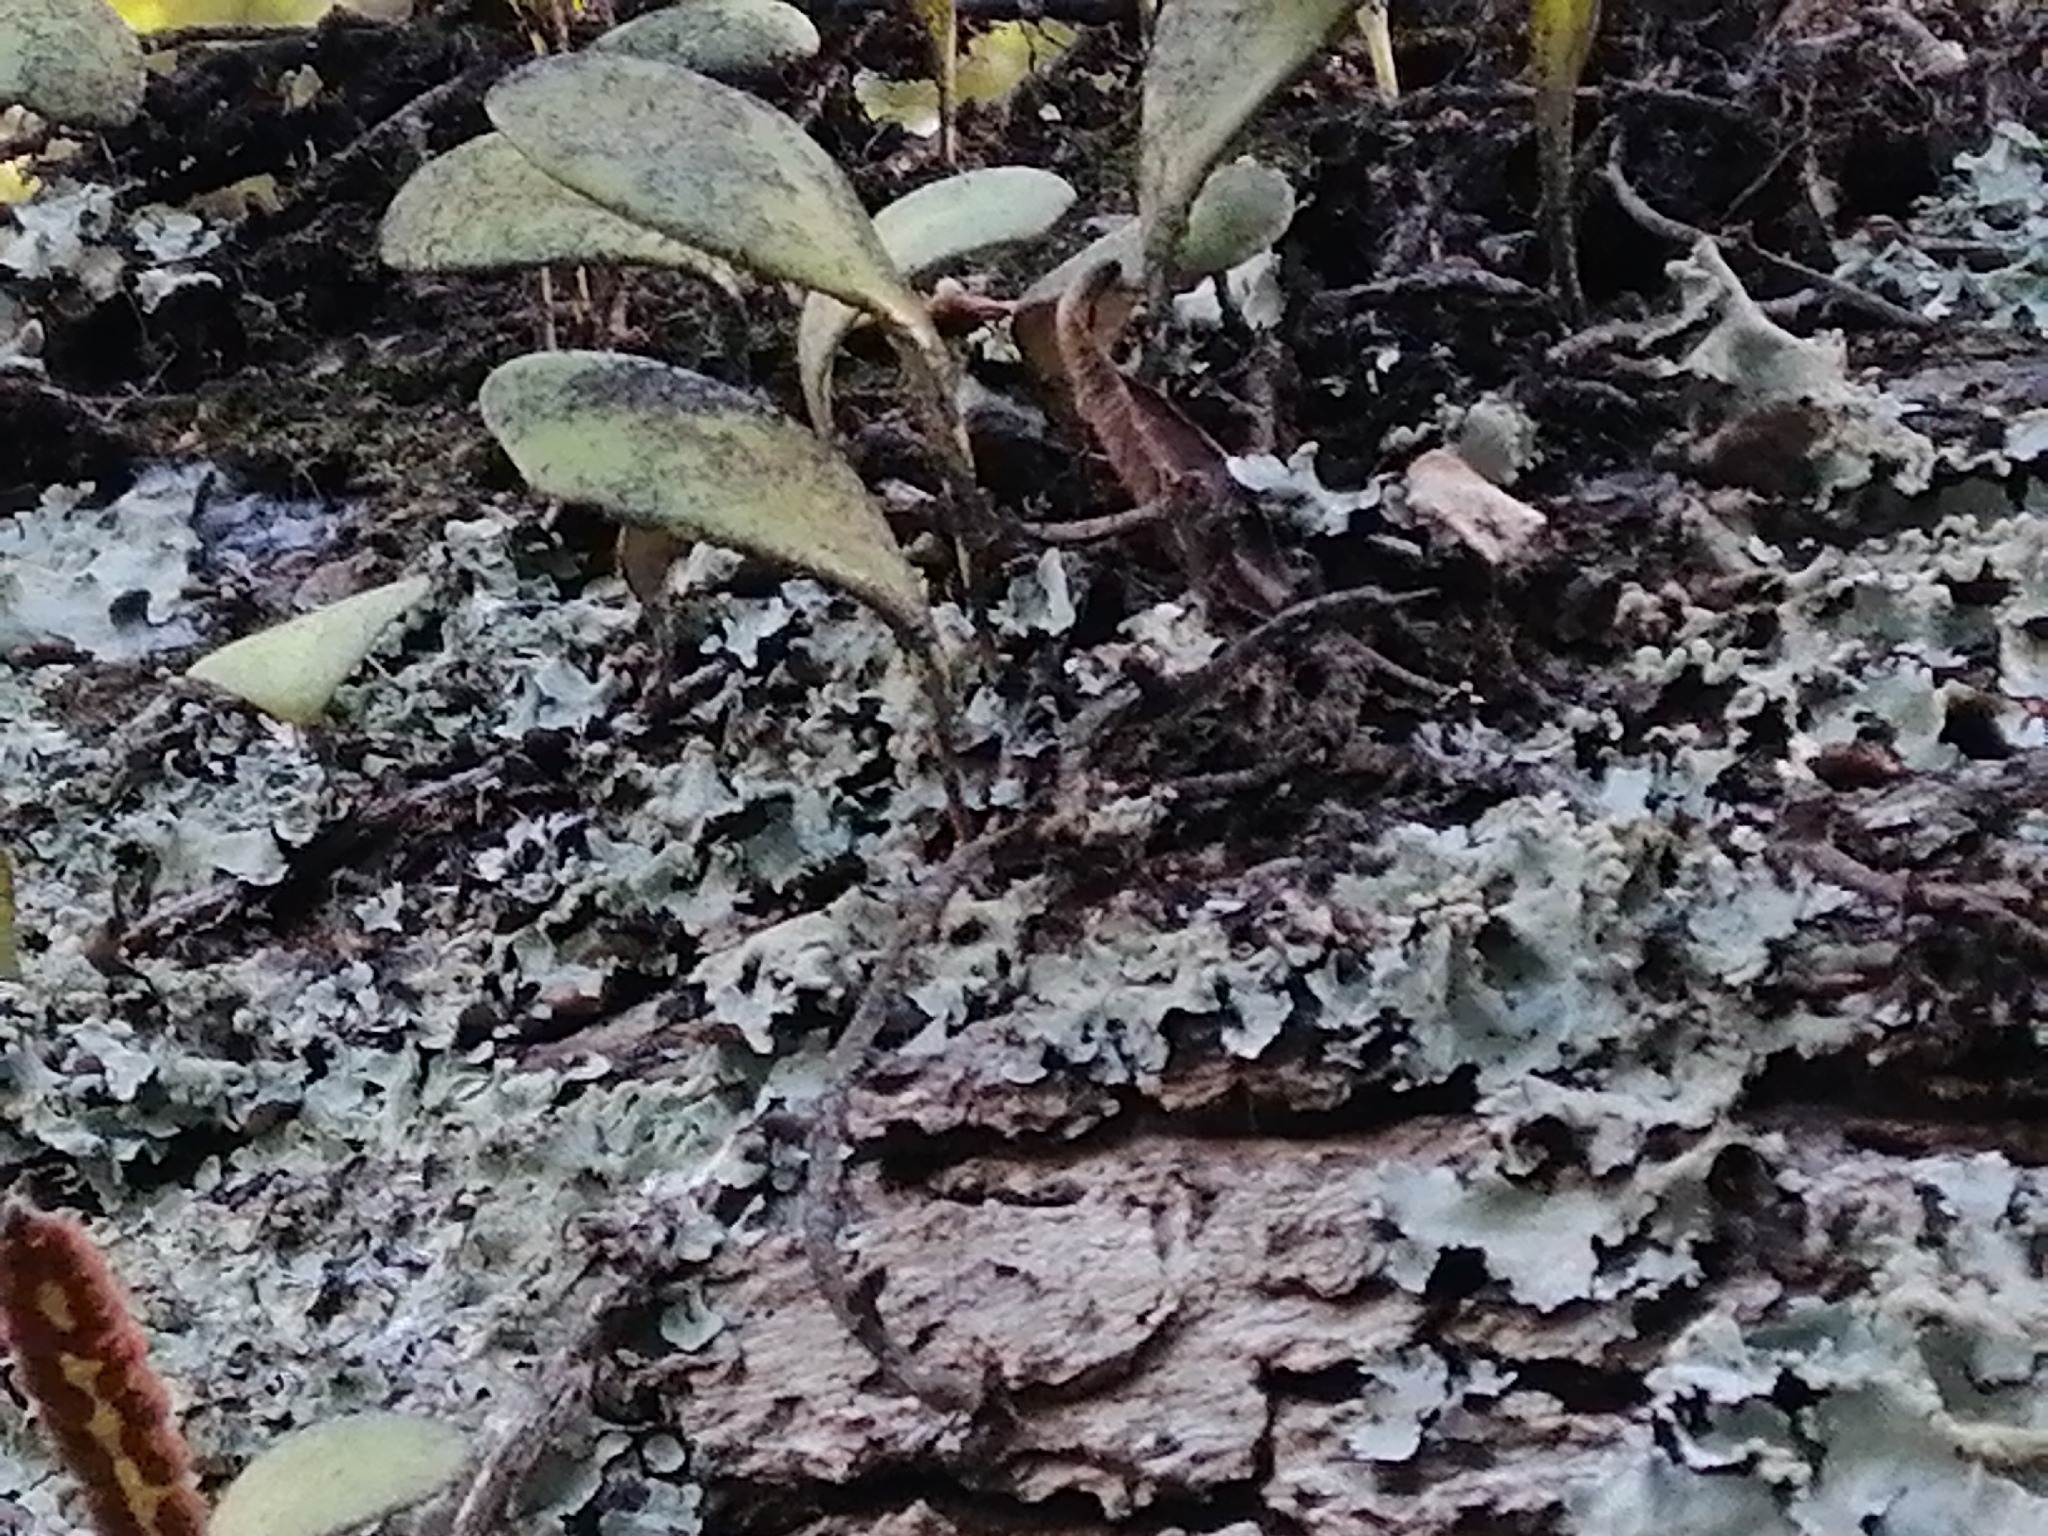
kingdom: Plantae
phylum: Tracheophyta
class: Polypodiopsida
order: Polypodiales
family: Polypodiaceae
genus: Pyrrosia
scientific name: Pyrrosia eleagnifolia
